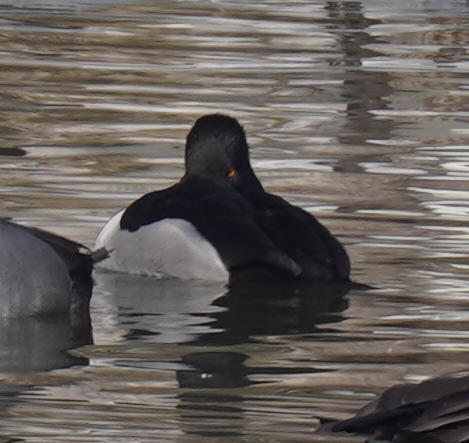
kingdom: Animalia
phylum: Chordata
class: Aves
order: Anseriformes
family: Anatidae
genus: Aythya
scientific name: Aythya collaris
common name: Ring-necked duck
